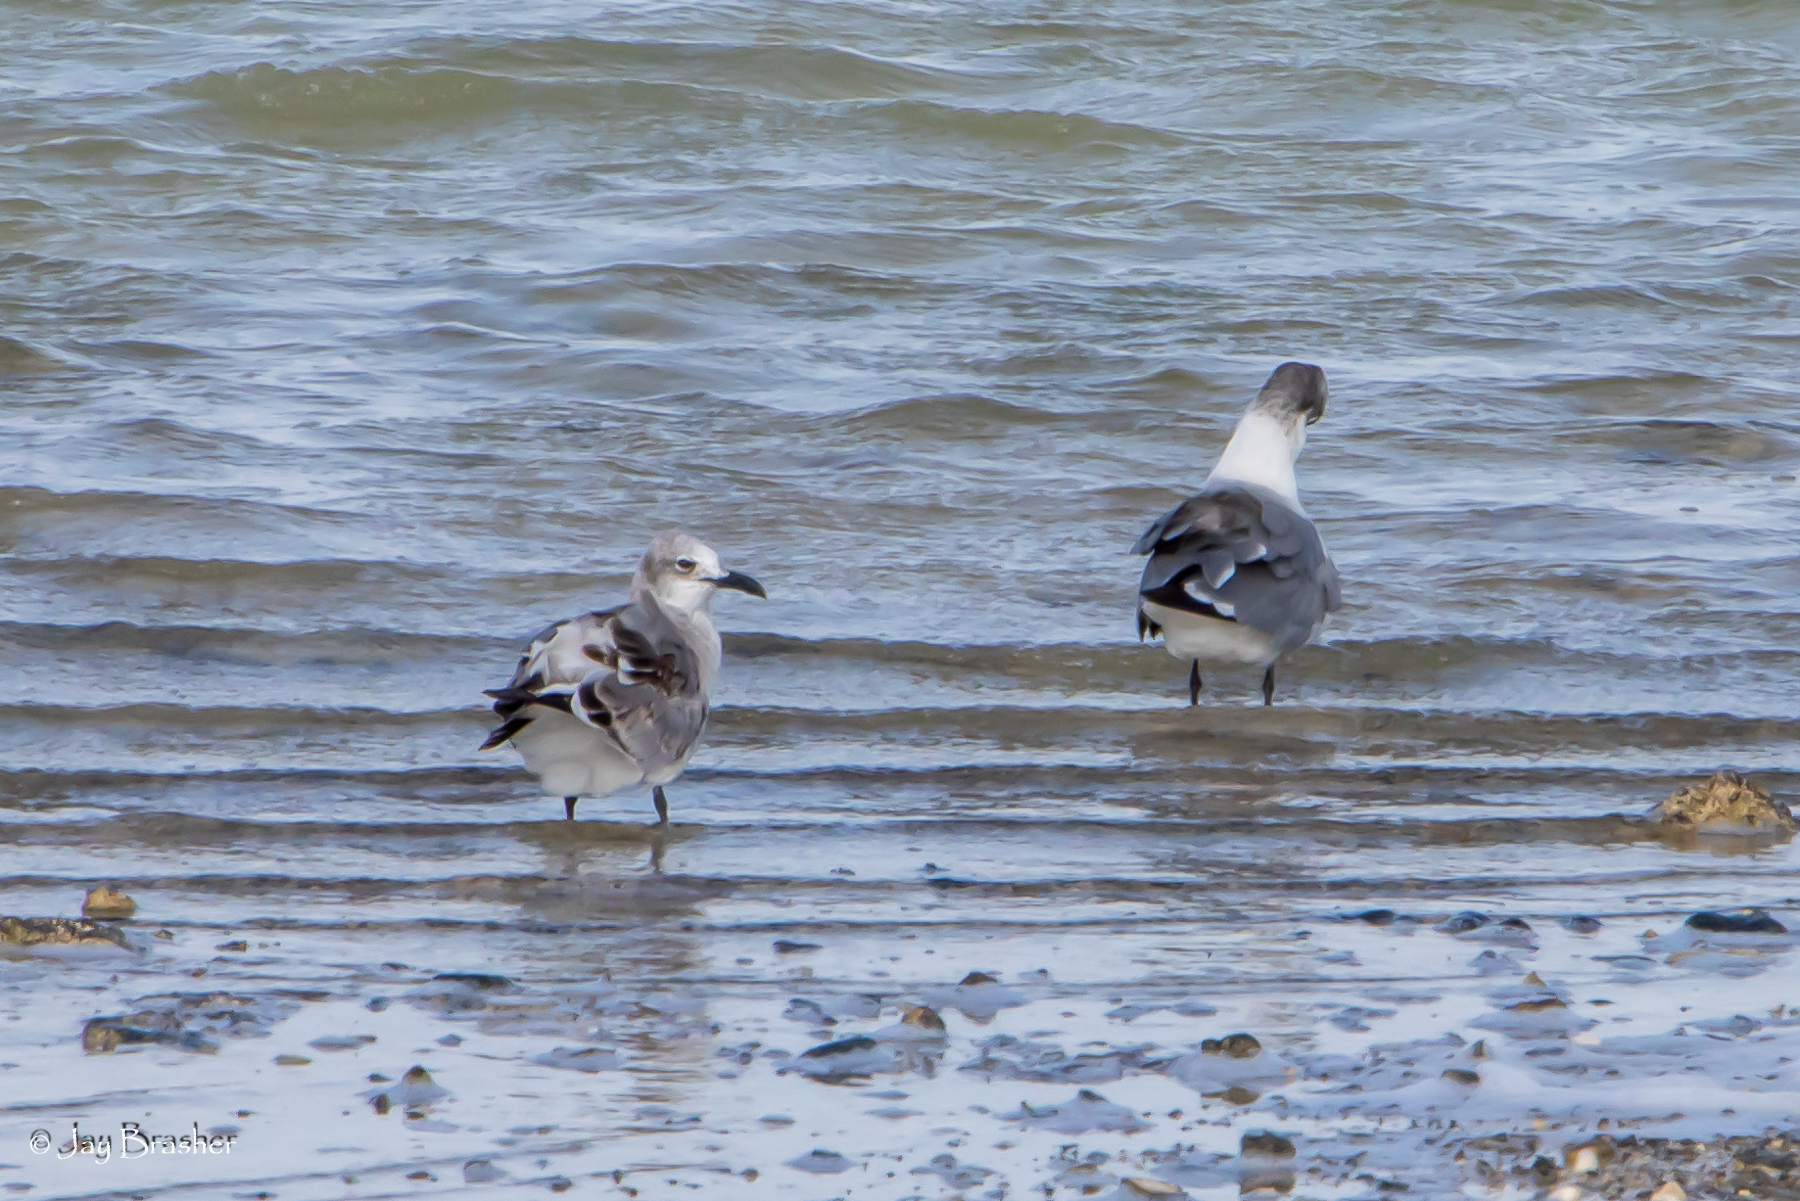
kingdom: Animalia
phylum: Chordata
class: Aves
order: Charadriiformes
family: Laridae
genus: Leucophaeus
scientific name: Leucophaeus atricilla
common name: Laughing gull
